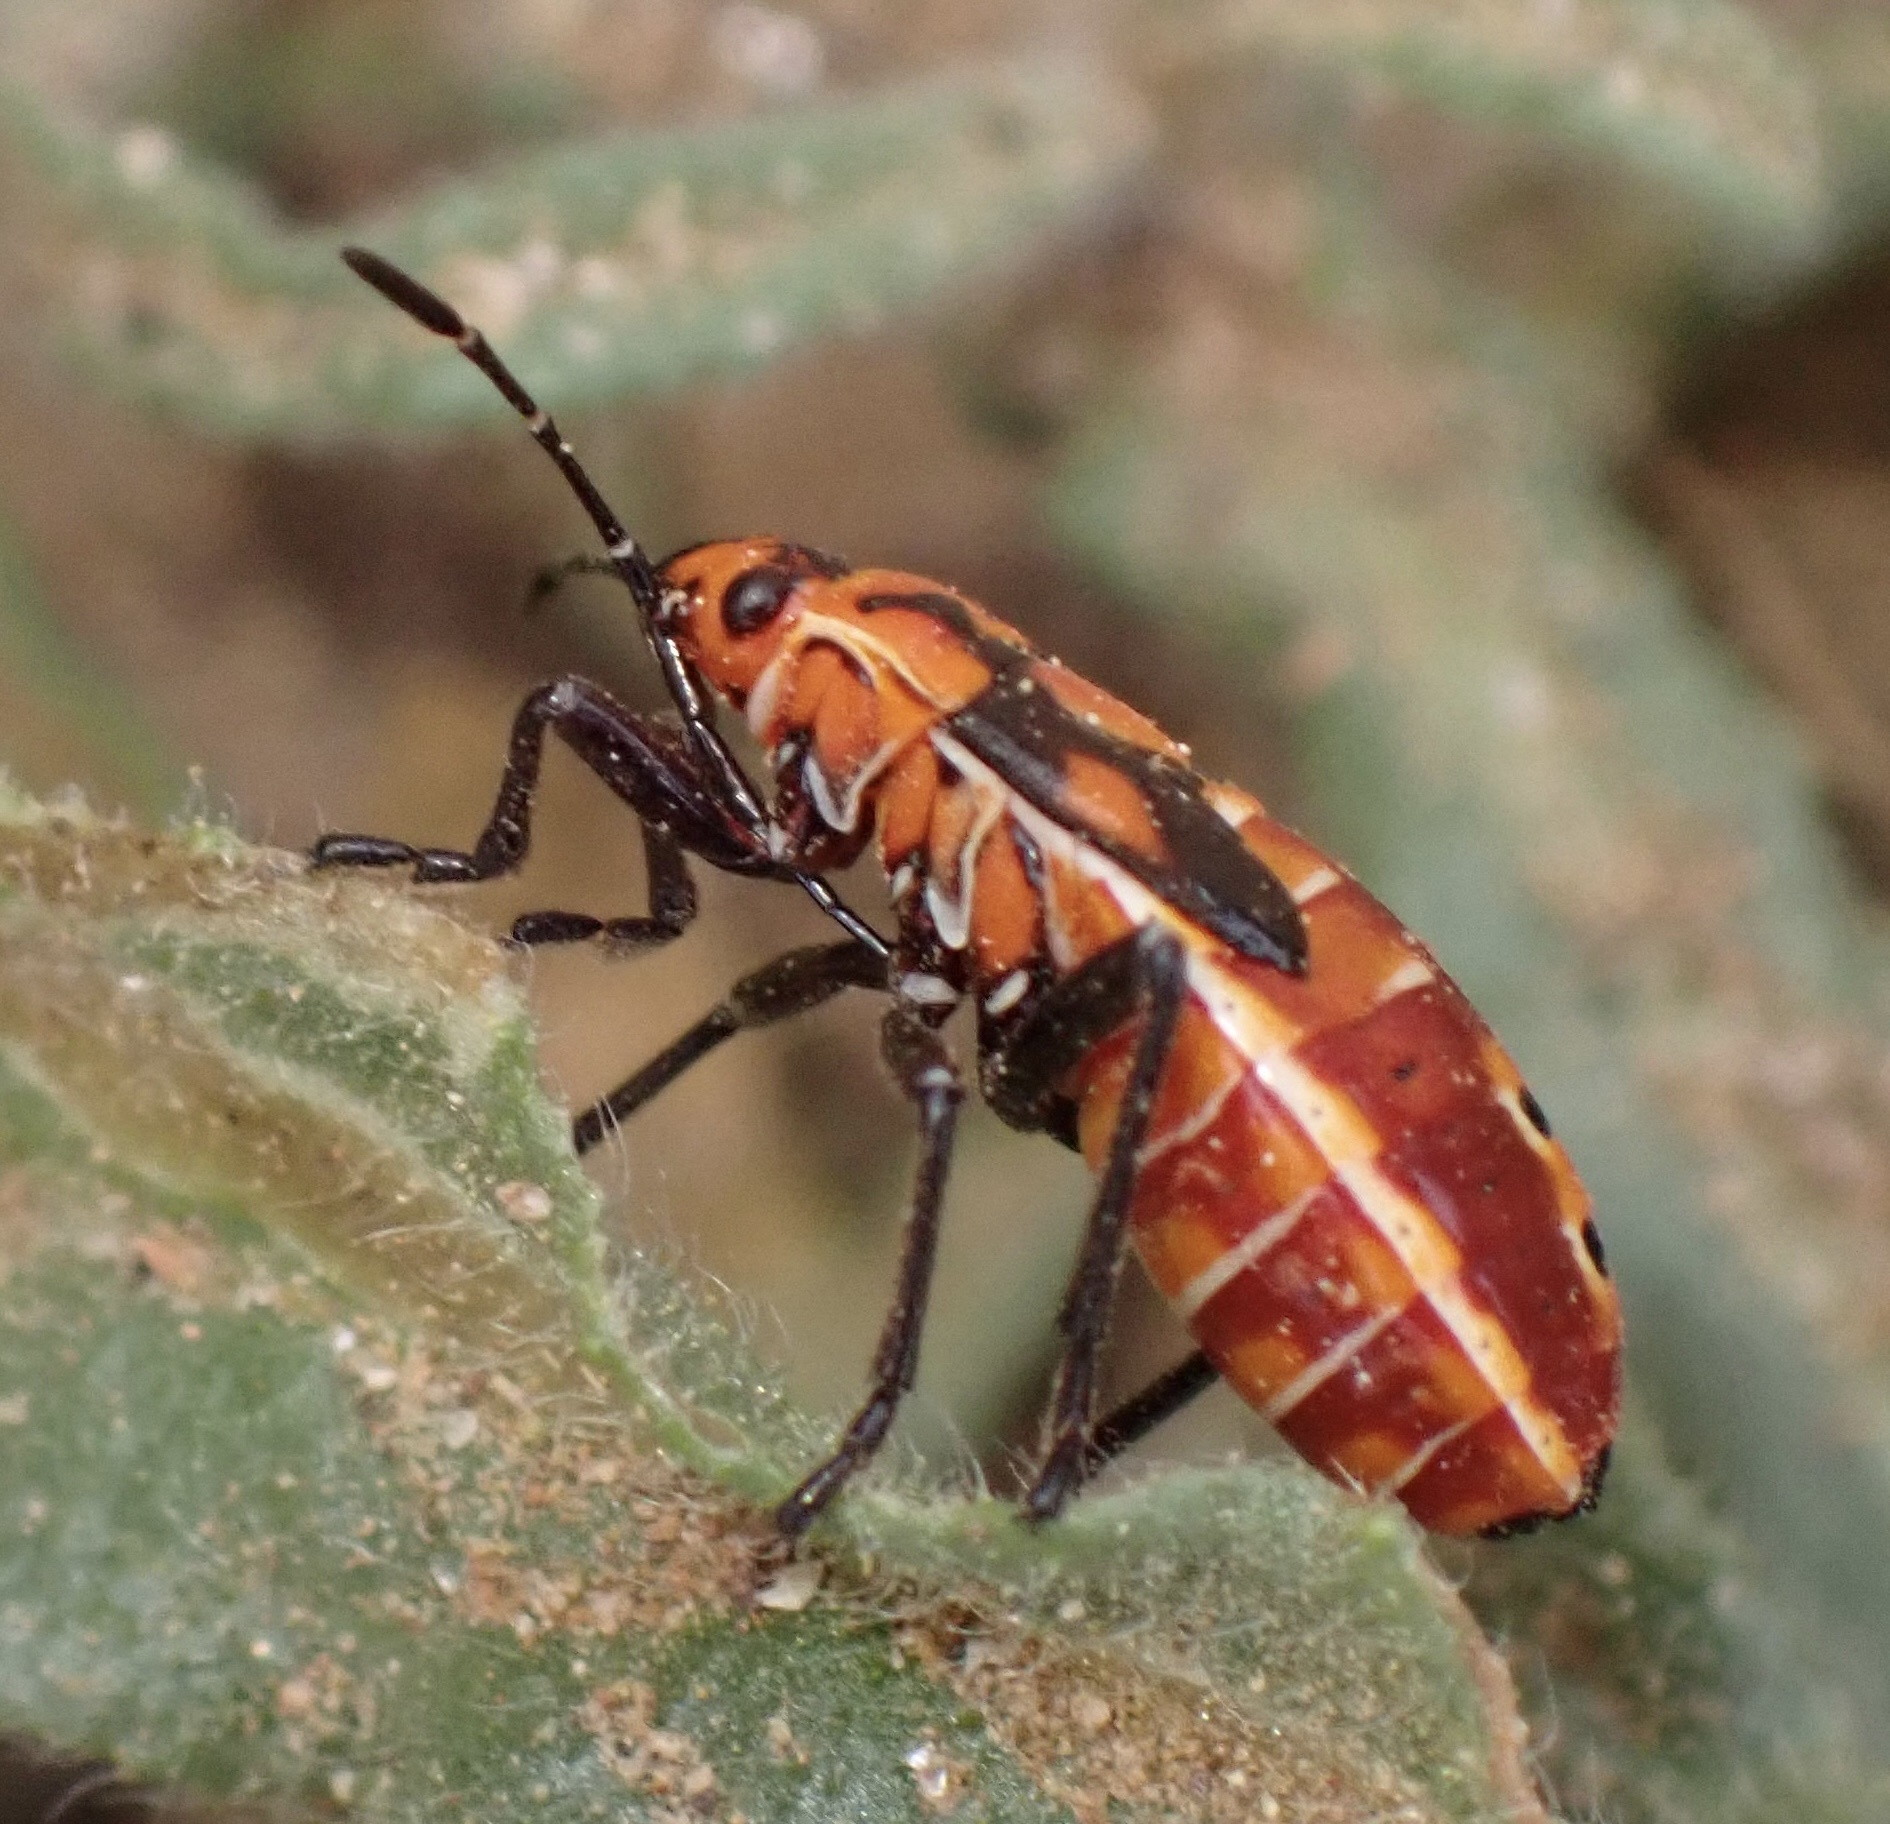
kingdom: Animalia
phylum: Arthropoda
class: Insecta
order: Hemiptera
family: Lygaeidae
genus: Spilostethus
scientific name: Spilostethus pandurus
